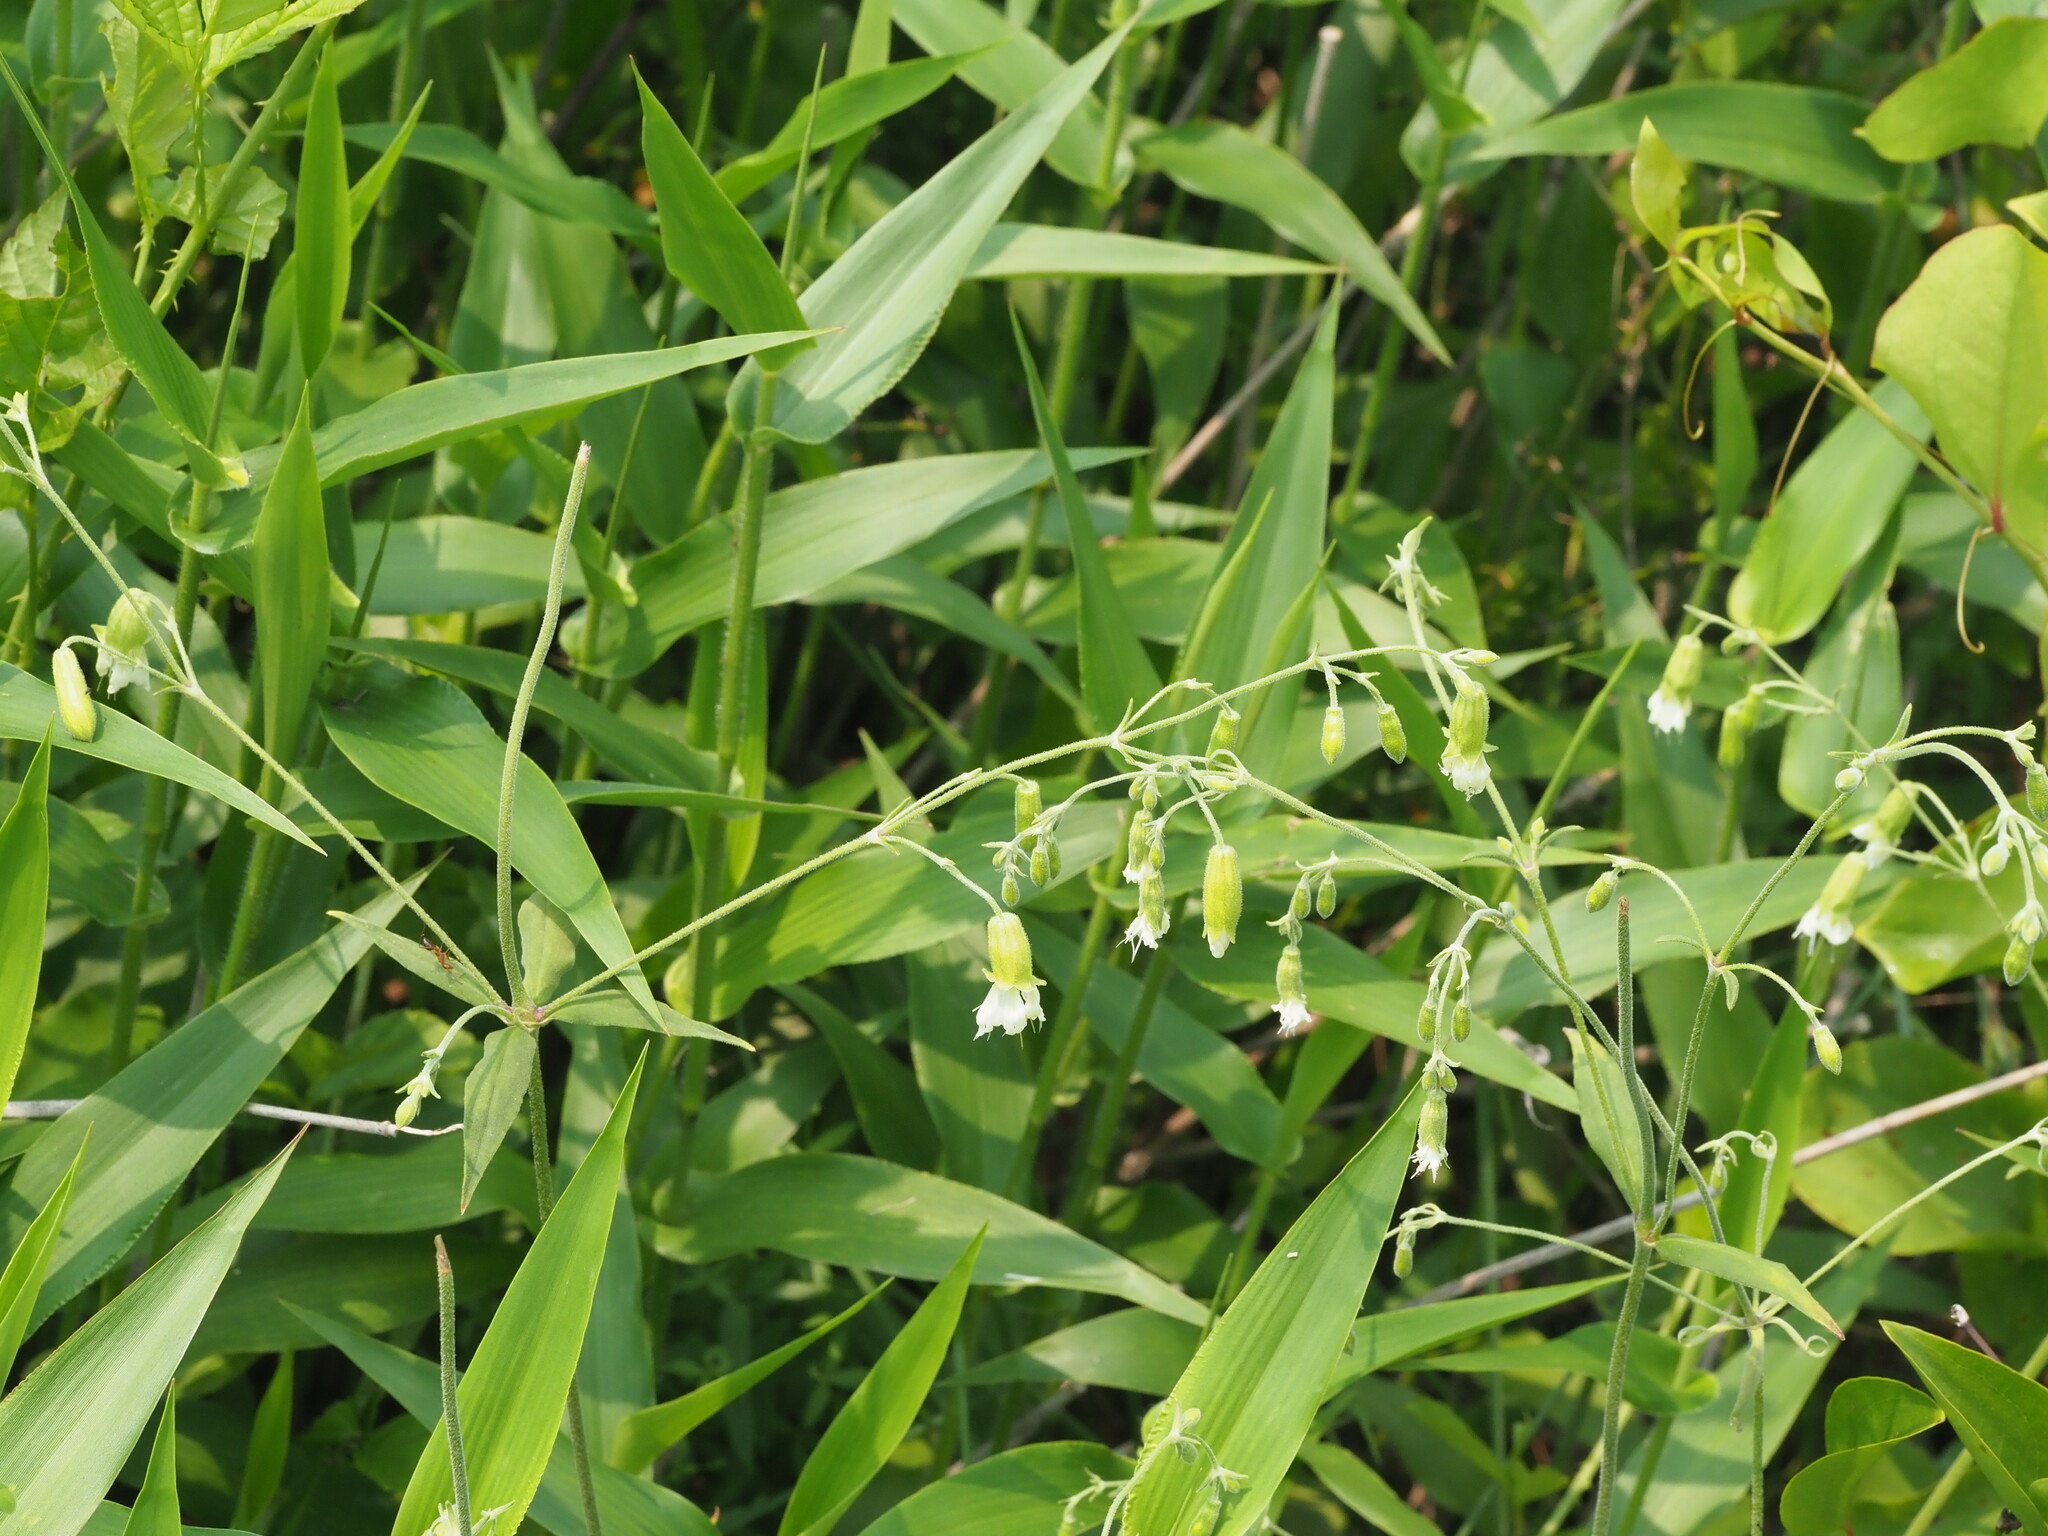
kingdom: Plantae
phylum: Tracheophyta
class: Magnoliopsida
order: Caryophyllales
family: Caryophyllaceae
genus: Silene
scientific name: Silene stellata
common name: Starry campion
